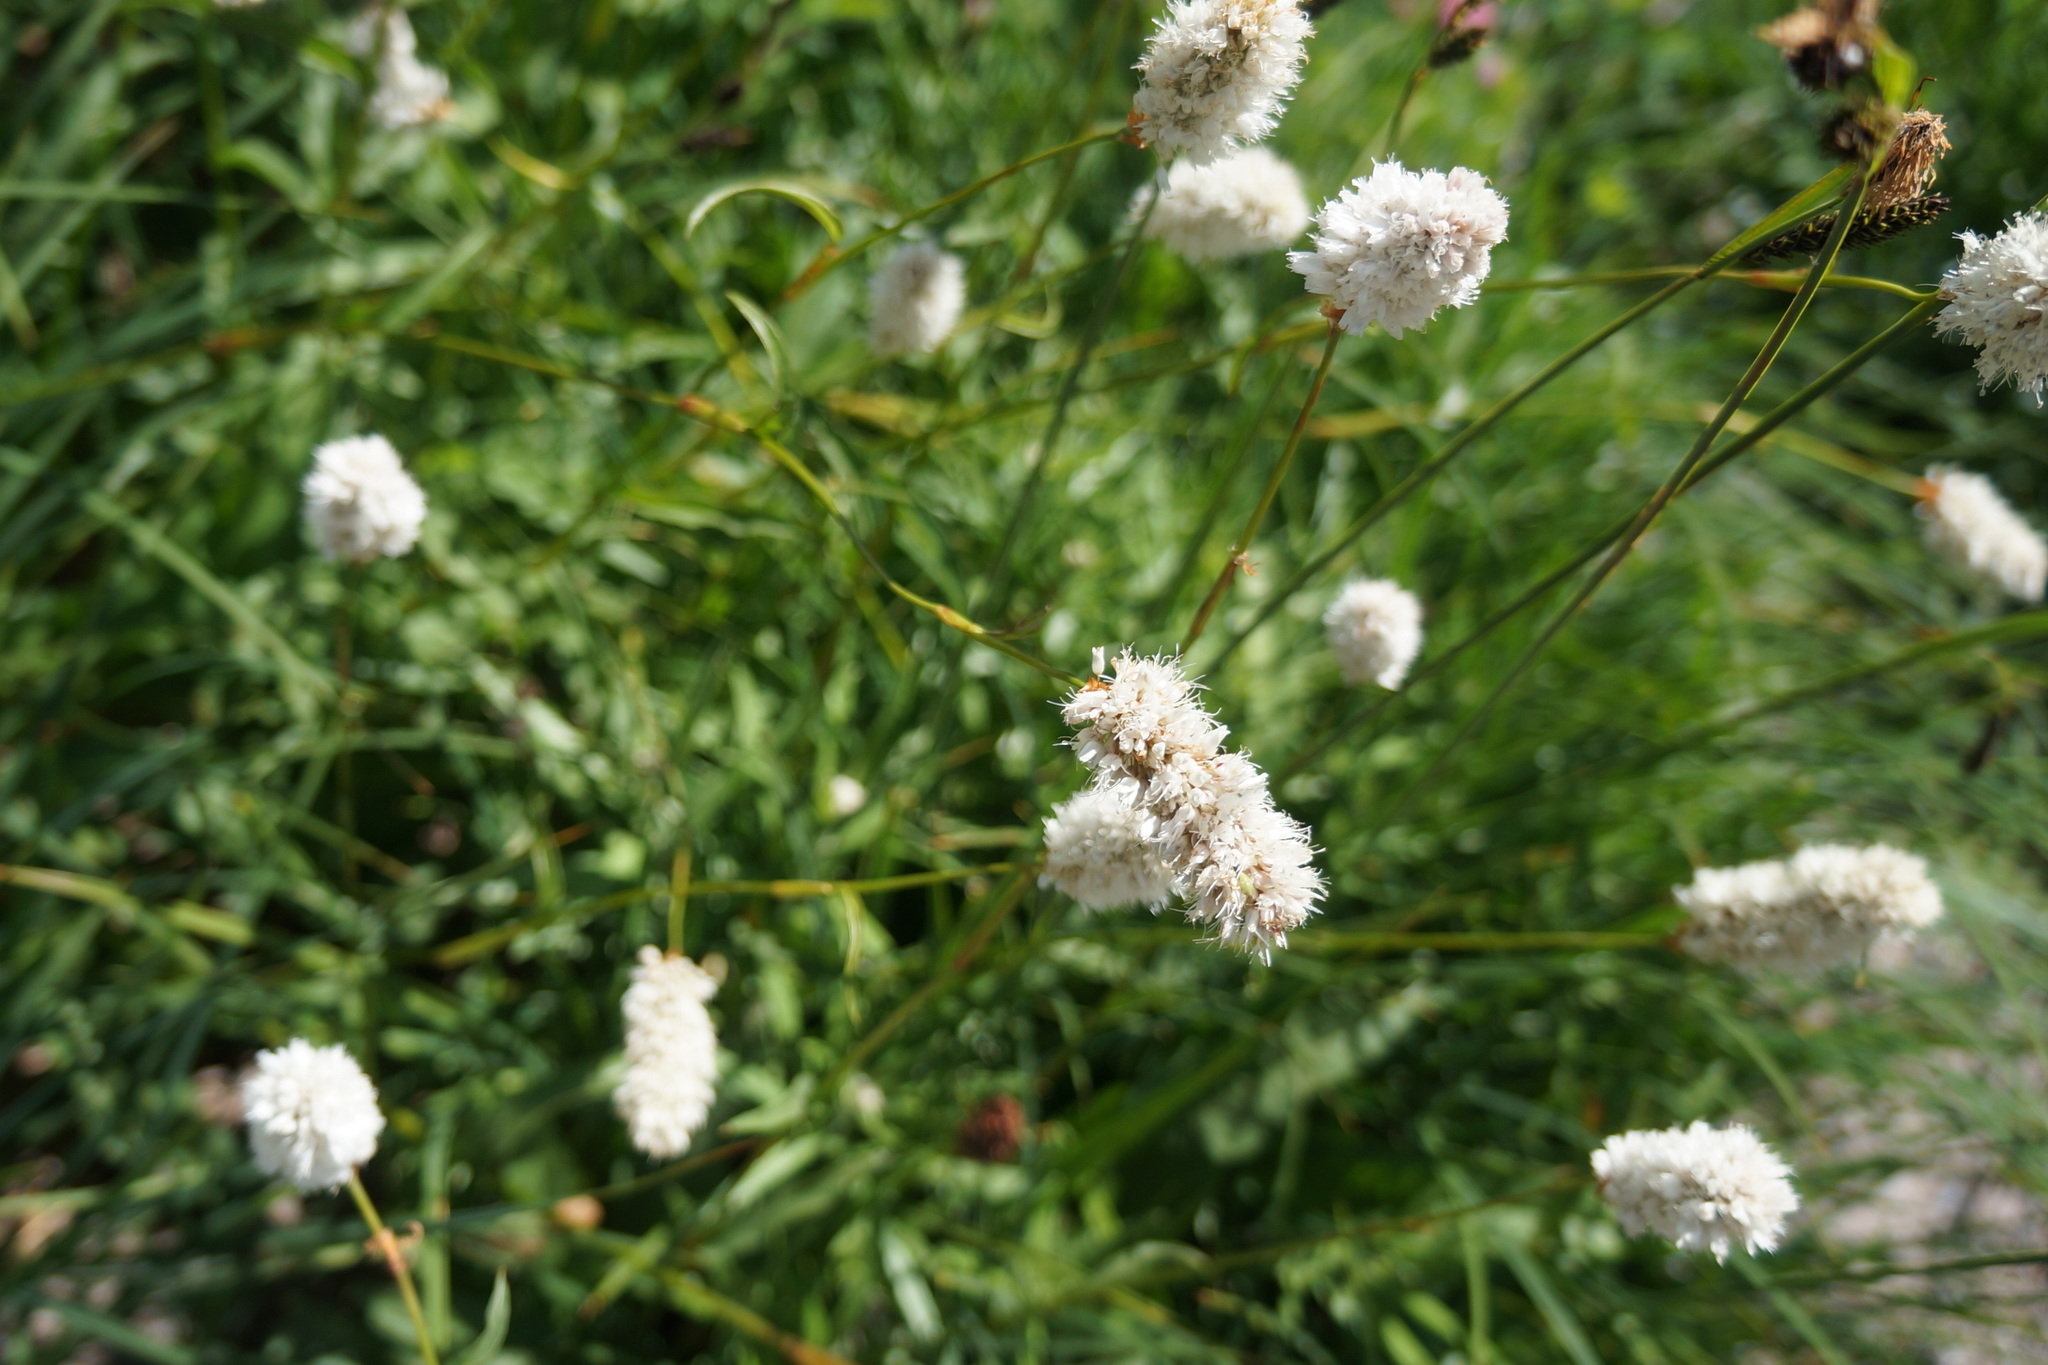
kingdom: Plantae
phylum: Tracheophyta
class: Magnoliopsida
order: Caryophyllales
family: Polygonaceae
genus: Bistorta
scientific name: Bistorta bistortoides
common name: American bistort
